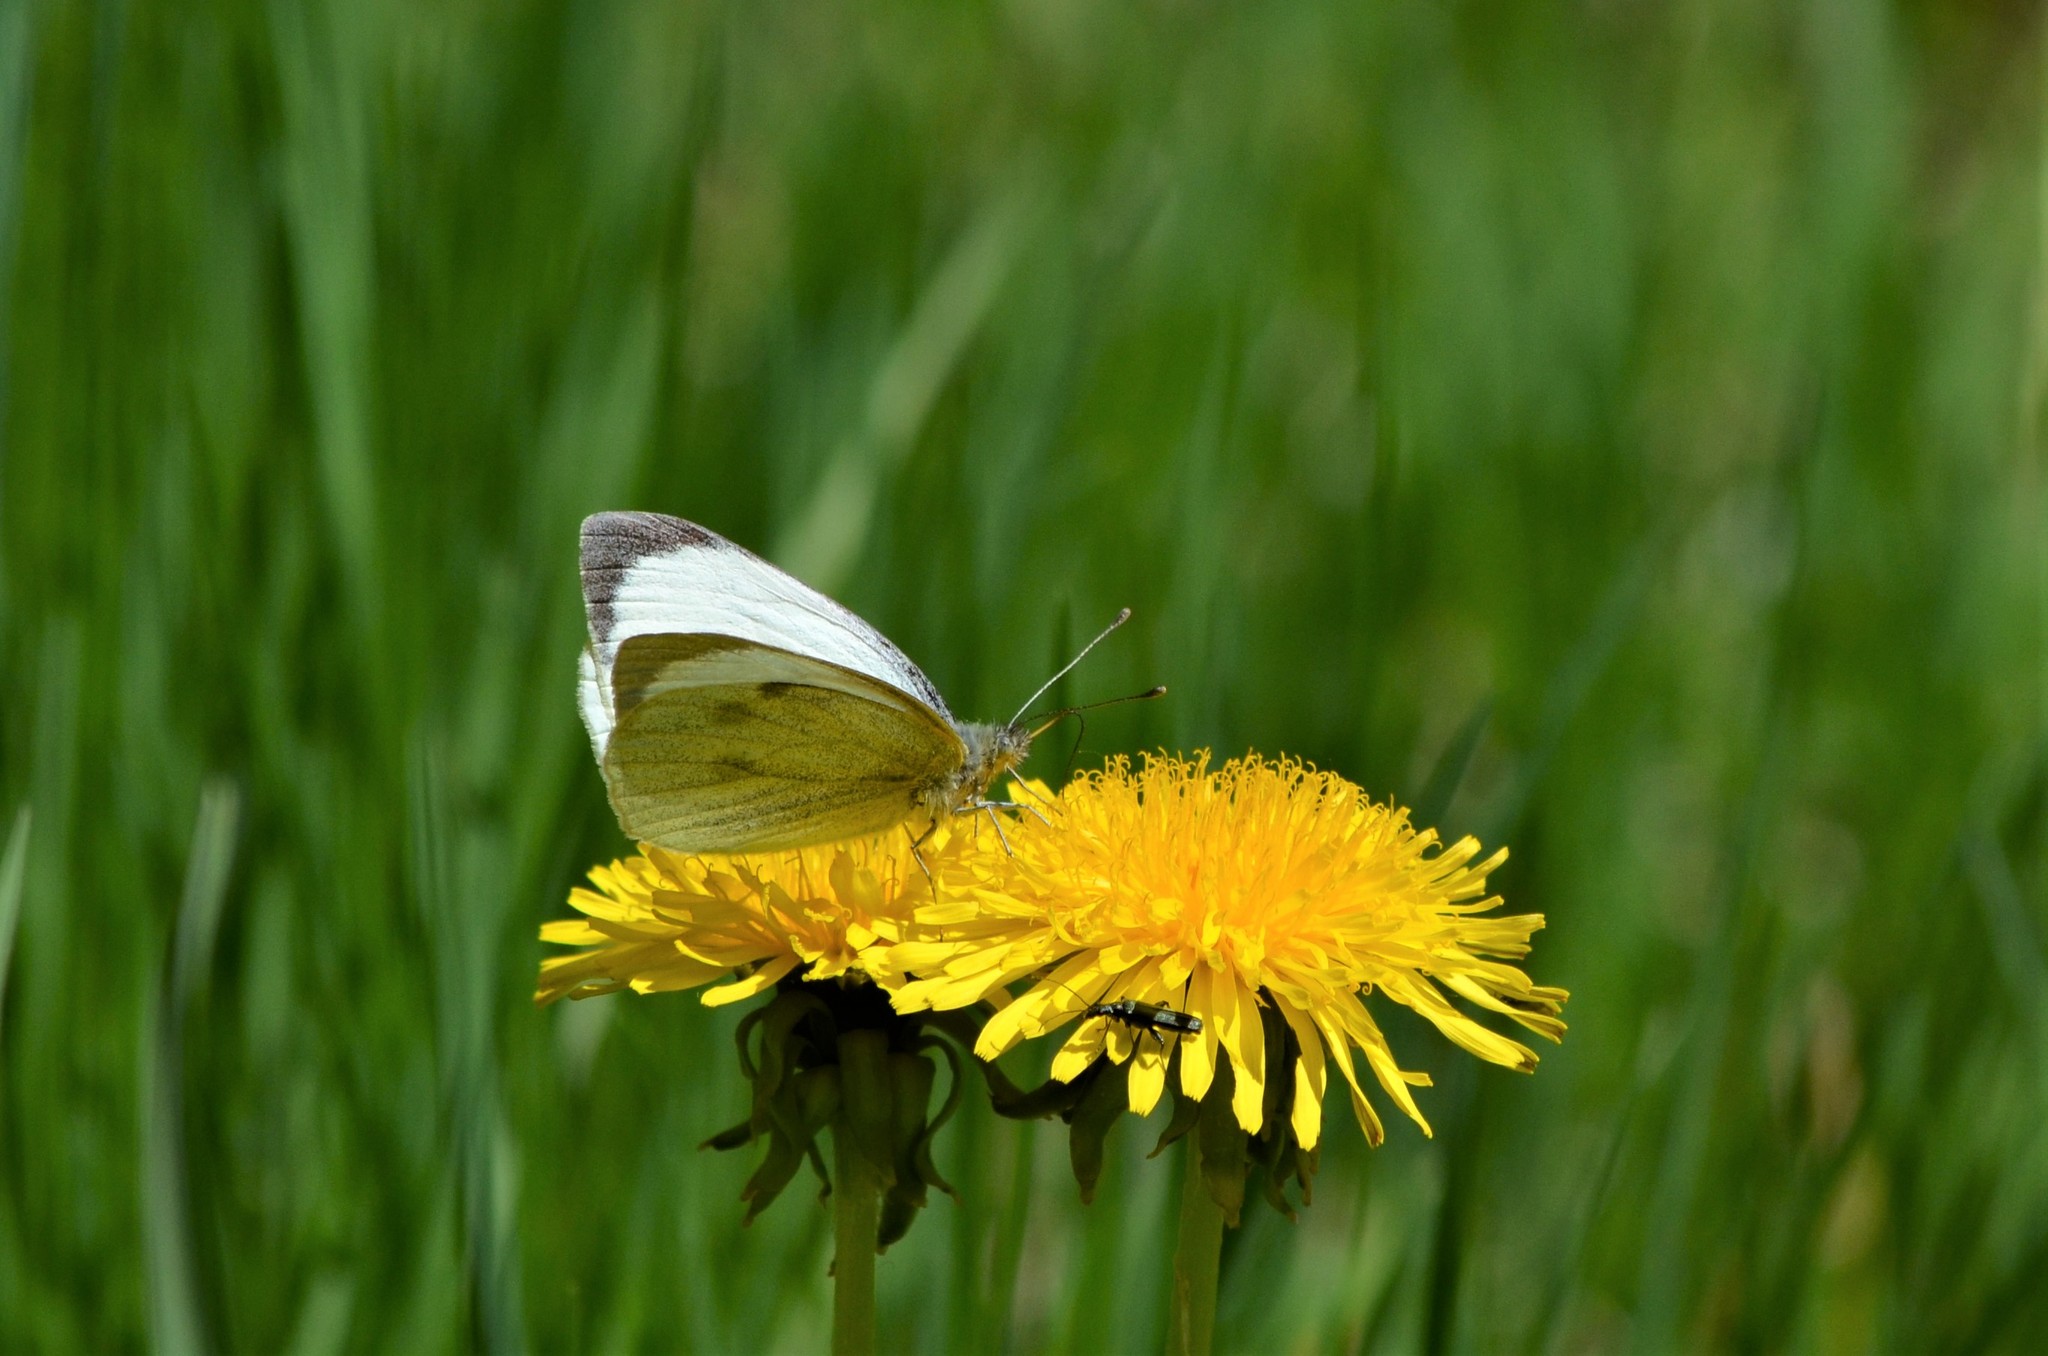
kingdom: Animalia
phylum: Arthropoda
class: Insecta
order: Lepidoptera
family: Pieridae
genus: Pieris
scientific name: Pieris brassicae
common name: Large white
